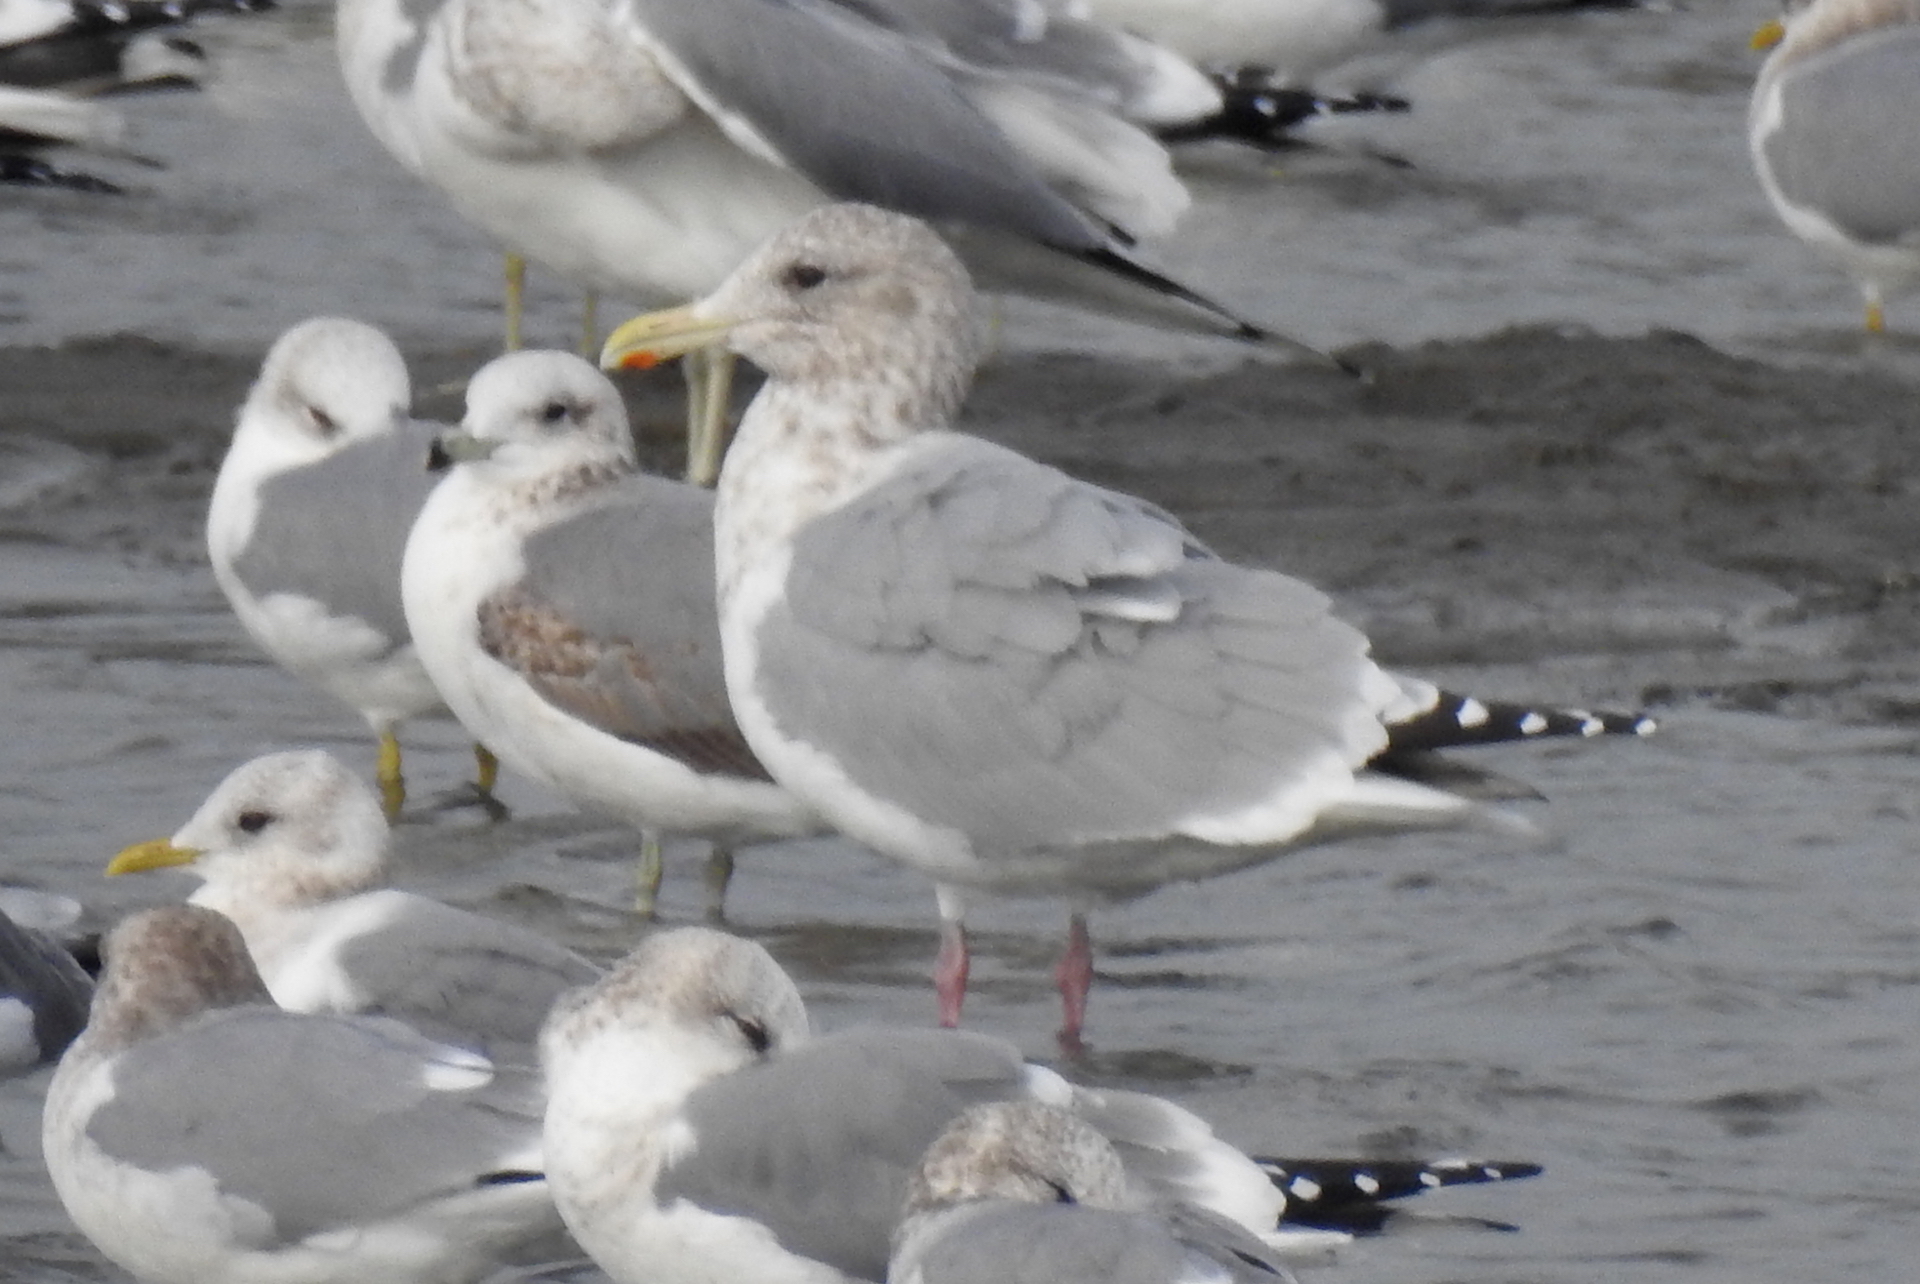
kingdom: Animalia
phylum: Chordata
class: Aves
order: Charadriiformes
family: Laridae
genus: Larus
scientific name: Larus glaucoides
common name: Iceland gull
